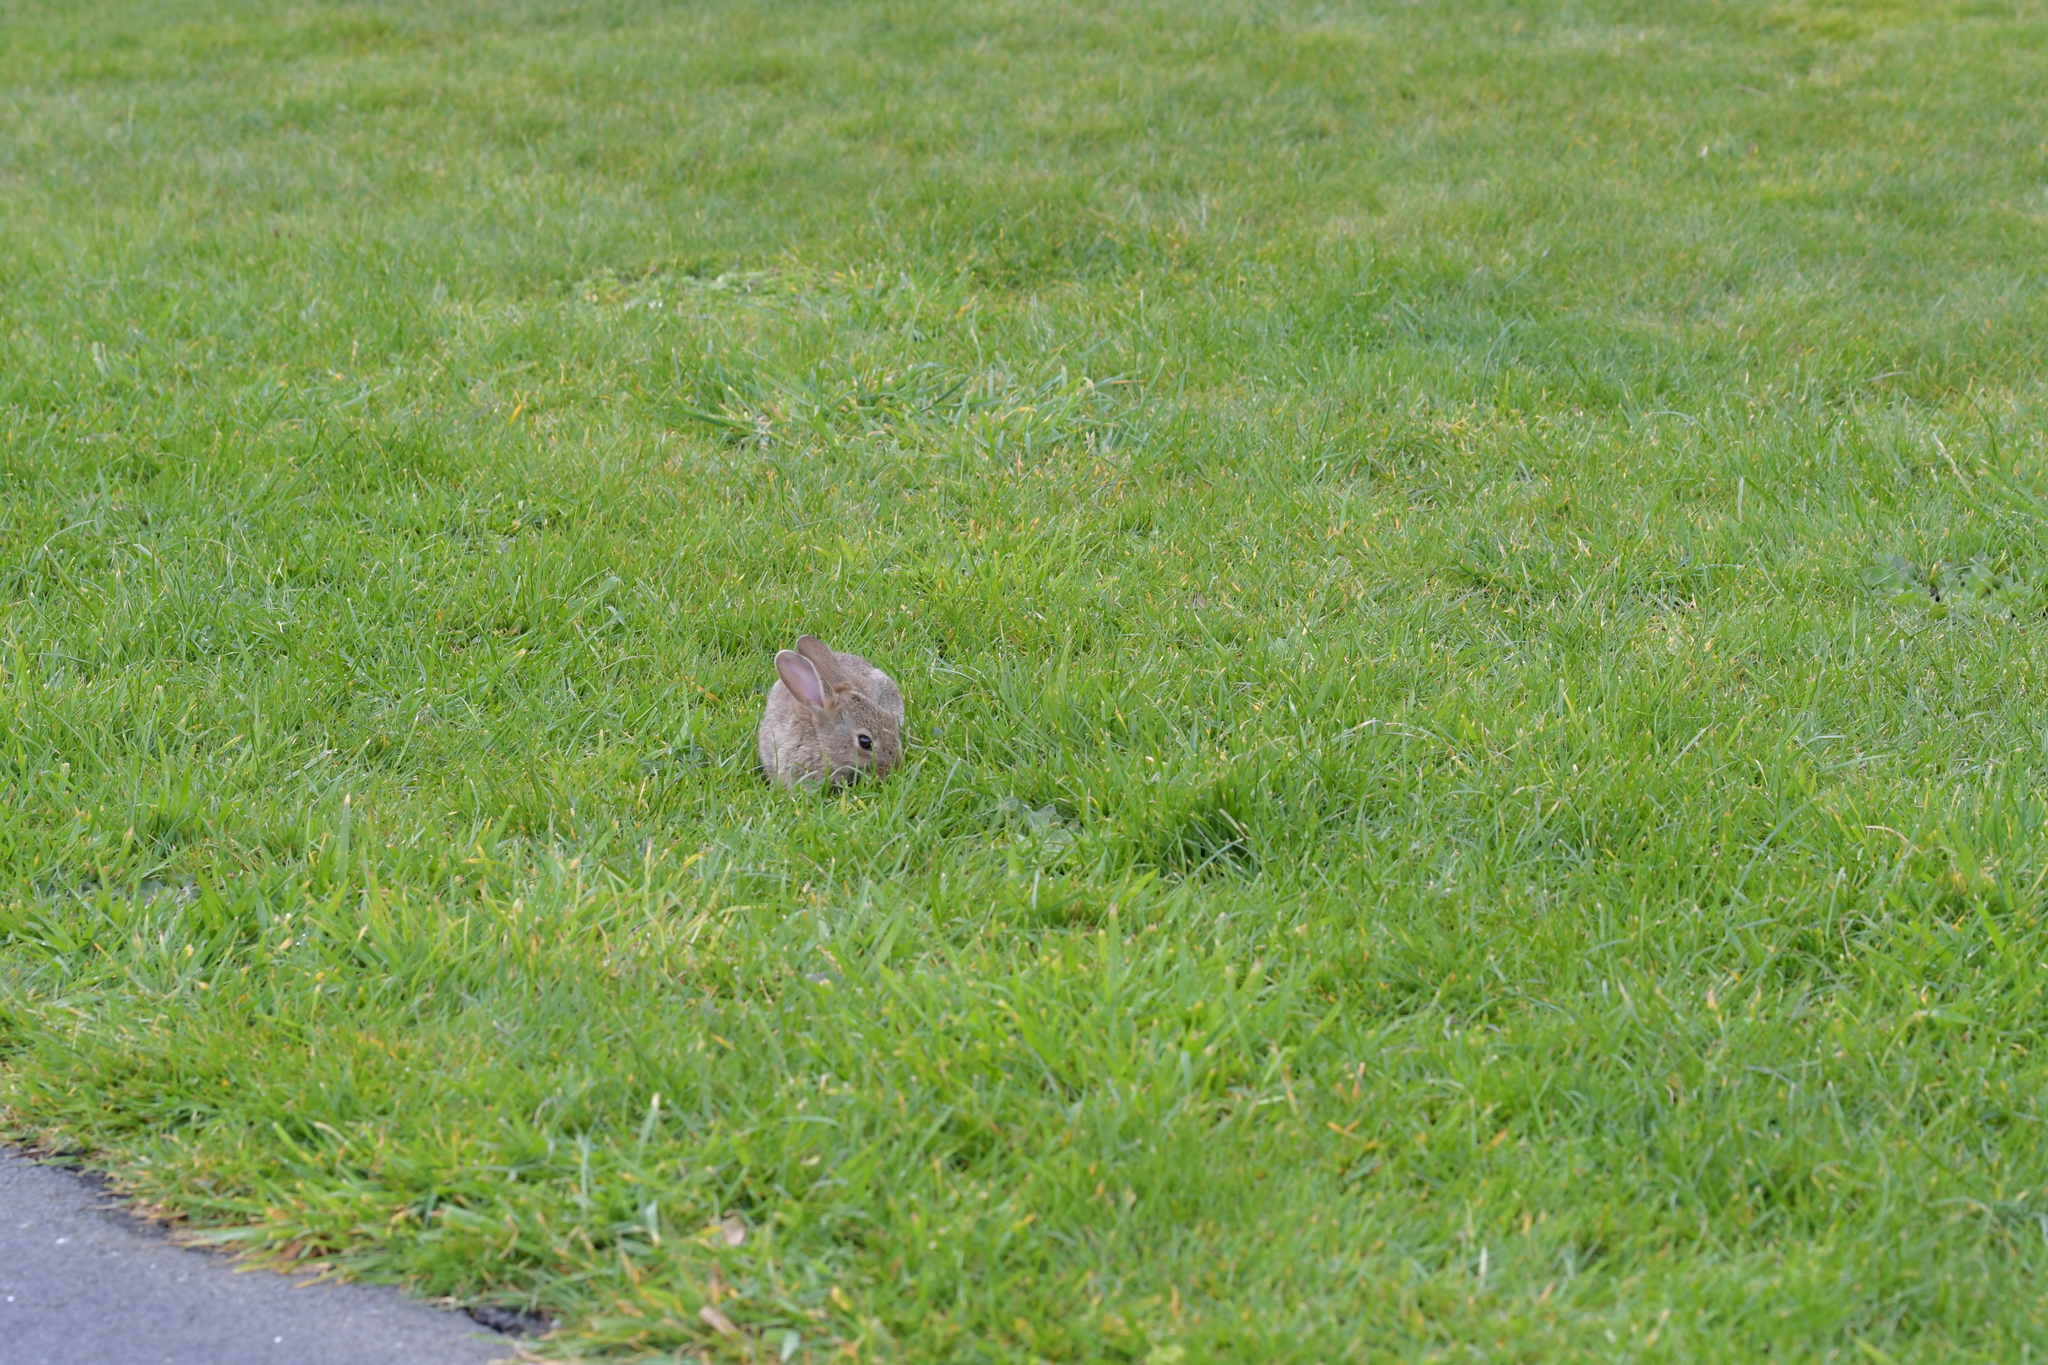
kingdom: Animalia
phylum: Chordata
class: Mammalia
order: Lagomorpha
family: Leporidae
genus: Oryctolagus
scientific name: Oryctolagus cuniculus
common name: European rabbit
